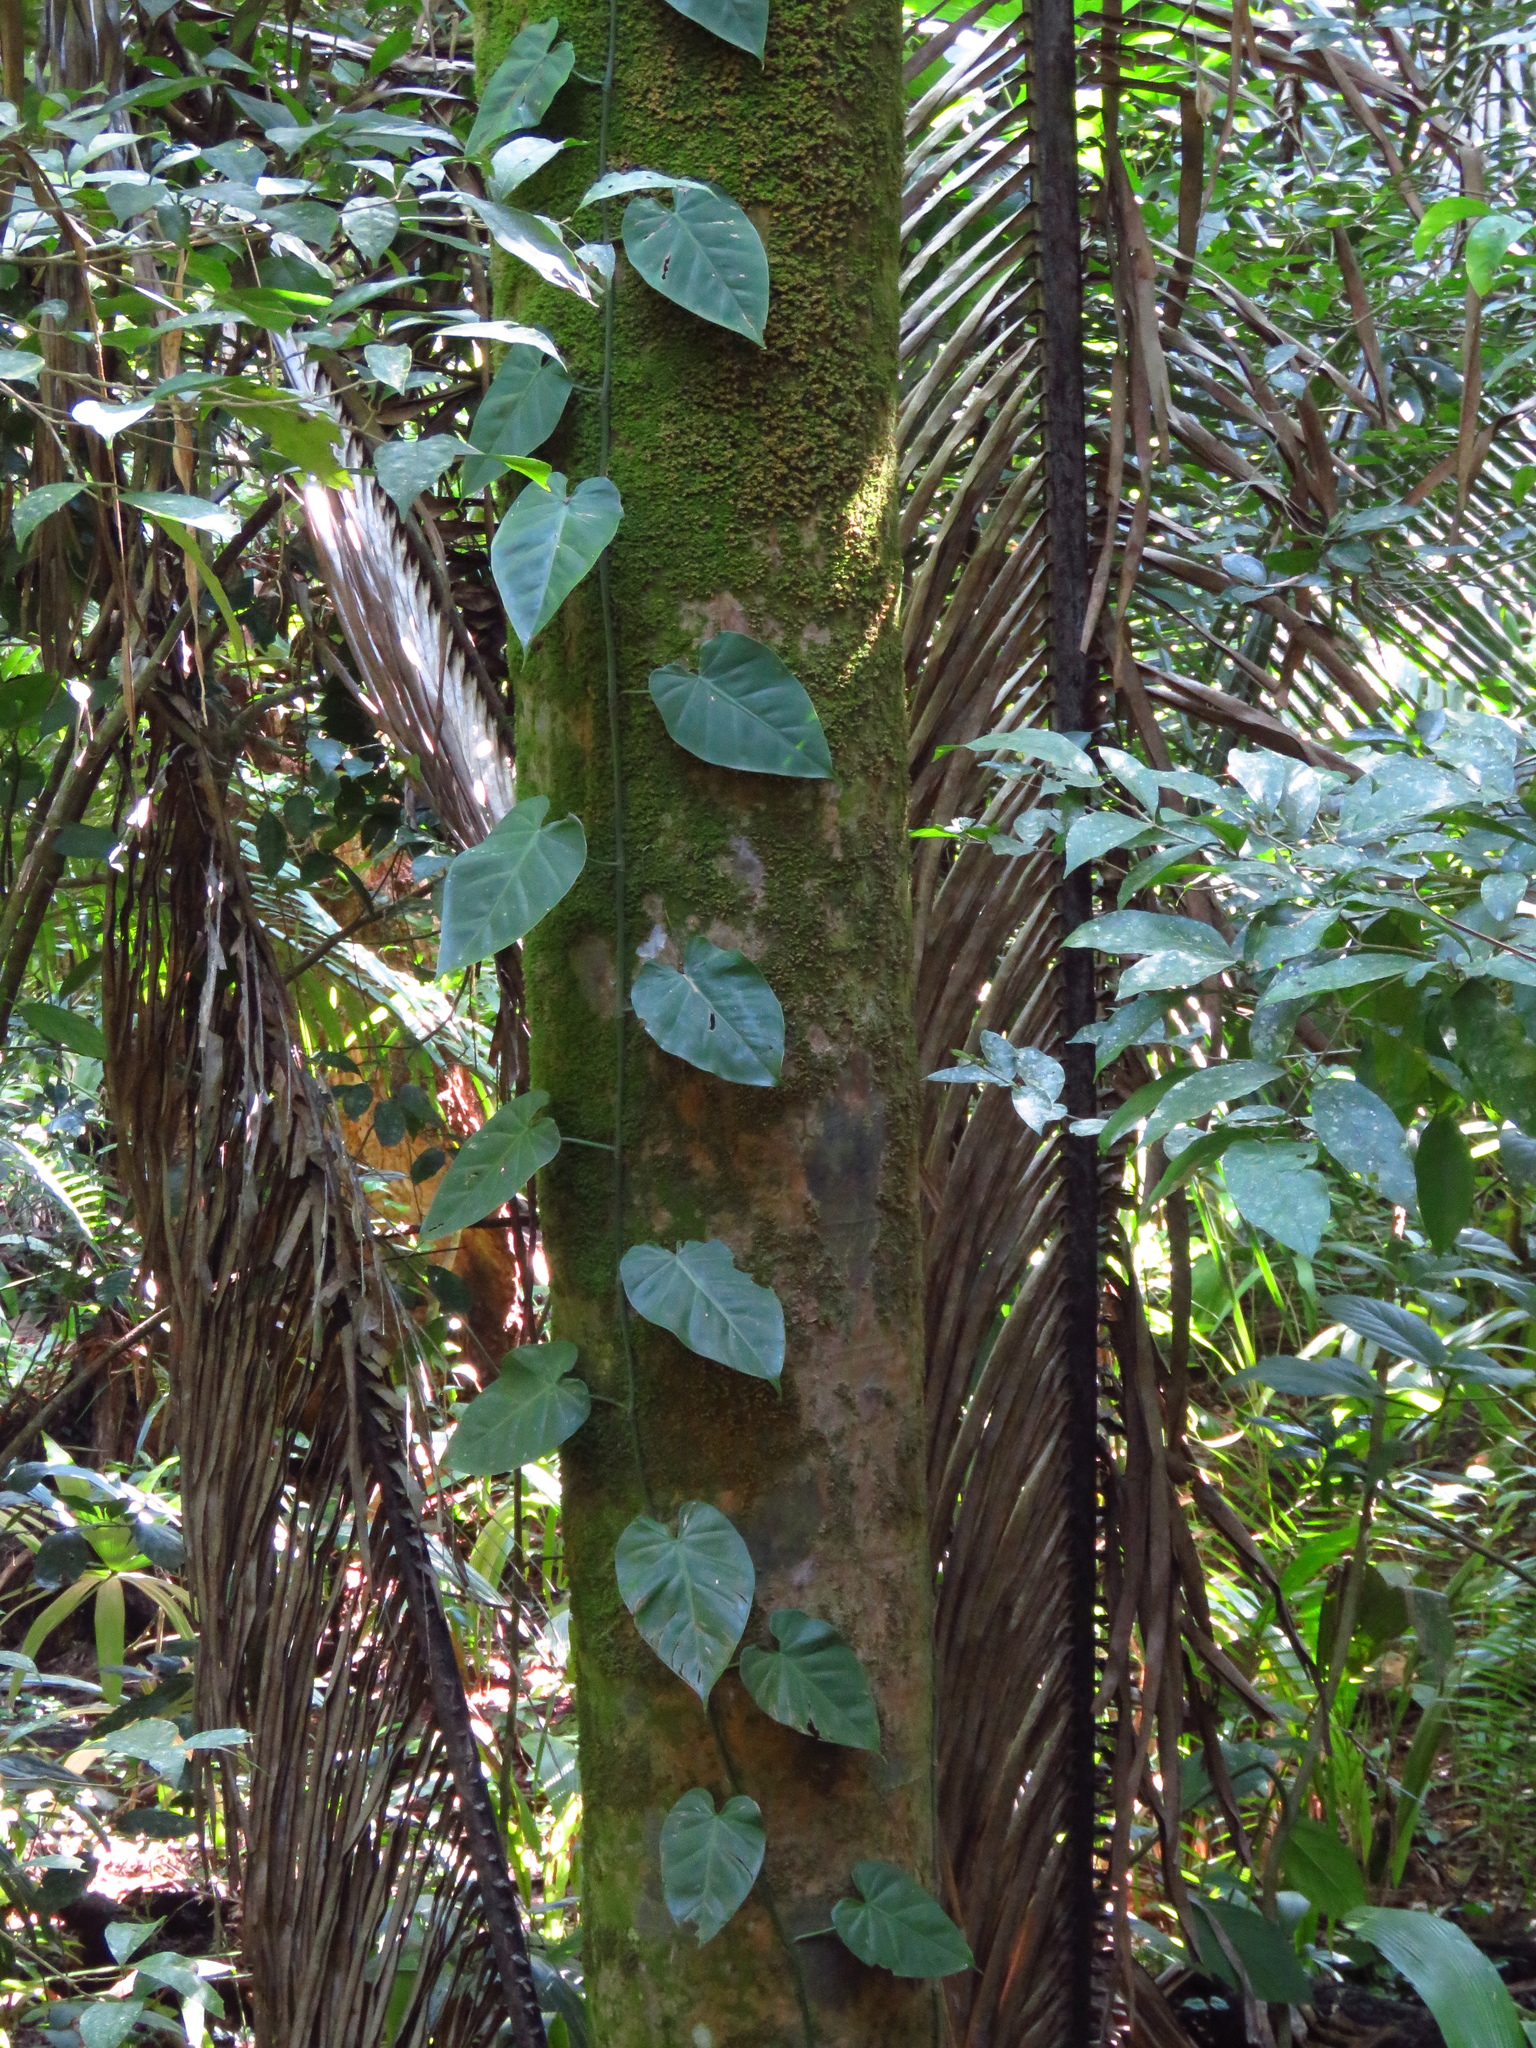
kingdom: Plantae
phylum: Tracheophyta
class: Liliopsida
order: Alismatales
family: Araceae
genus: Philodendron
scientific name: Philodendron hederaceum
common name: Vilevine
